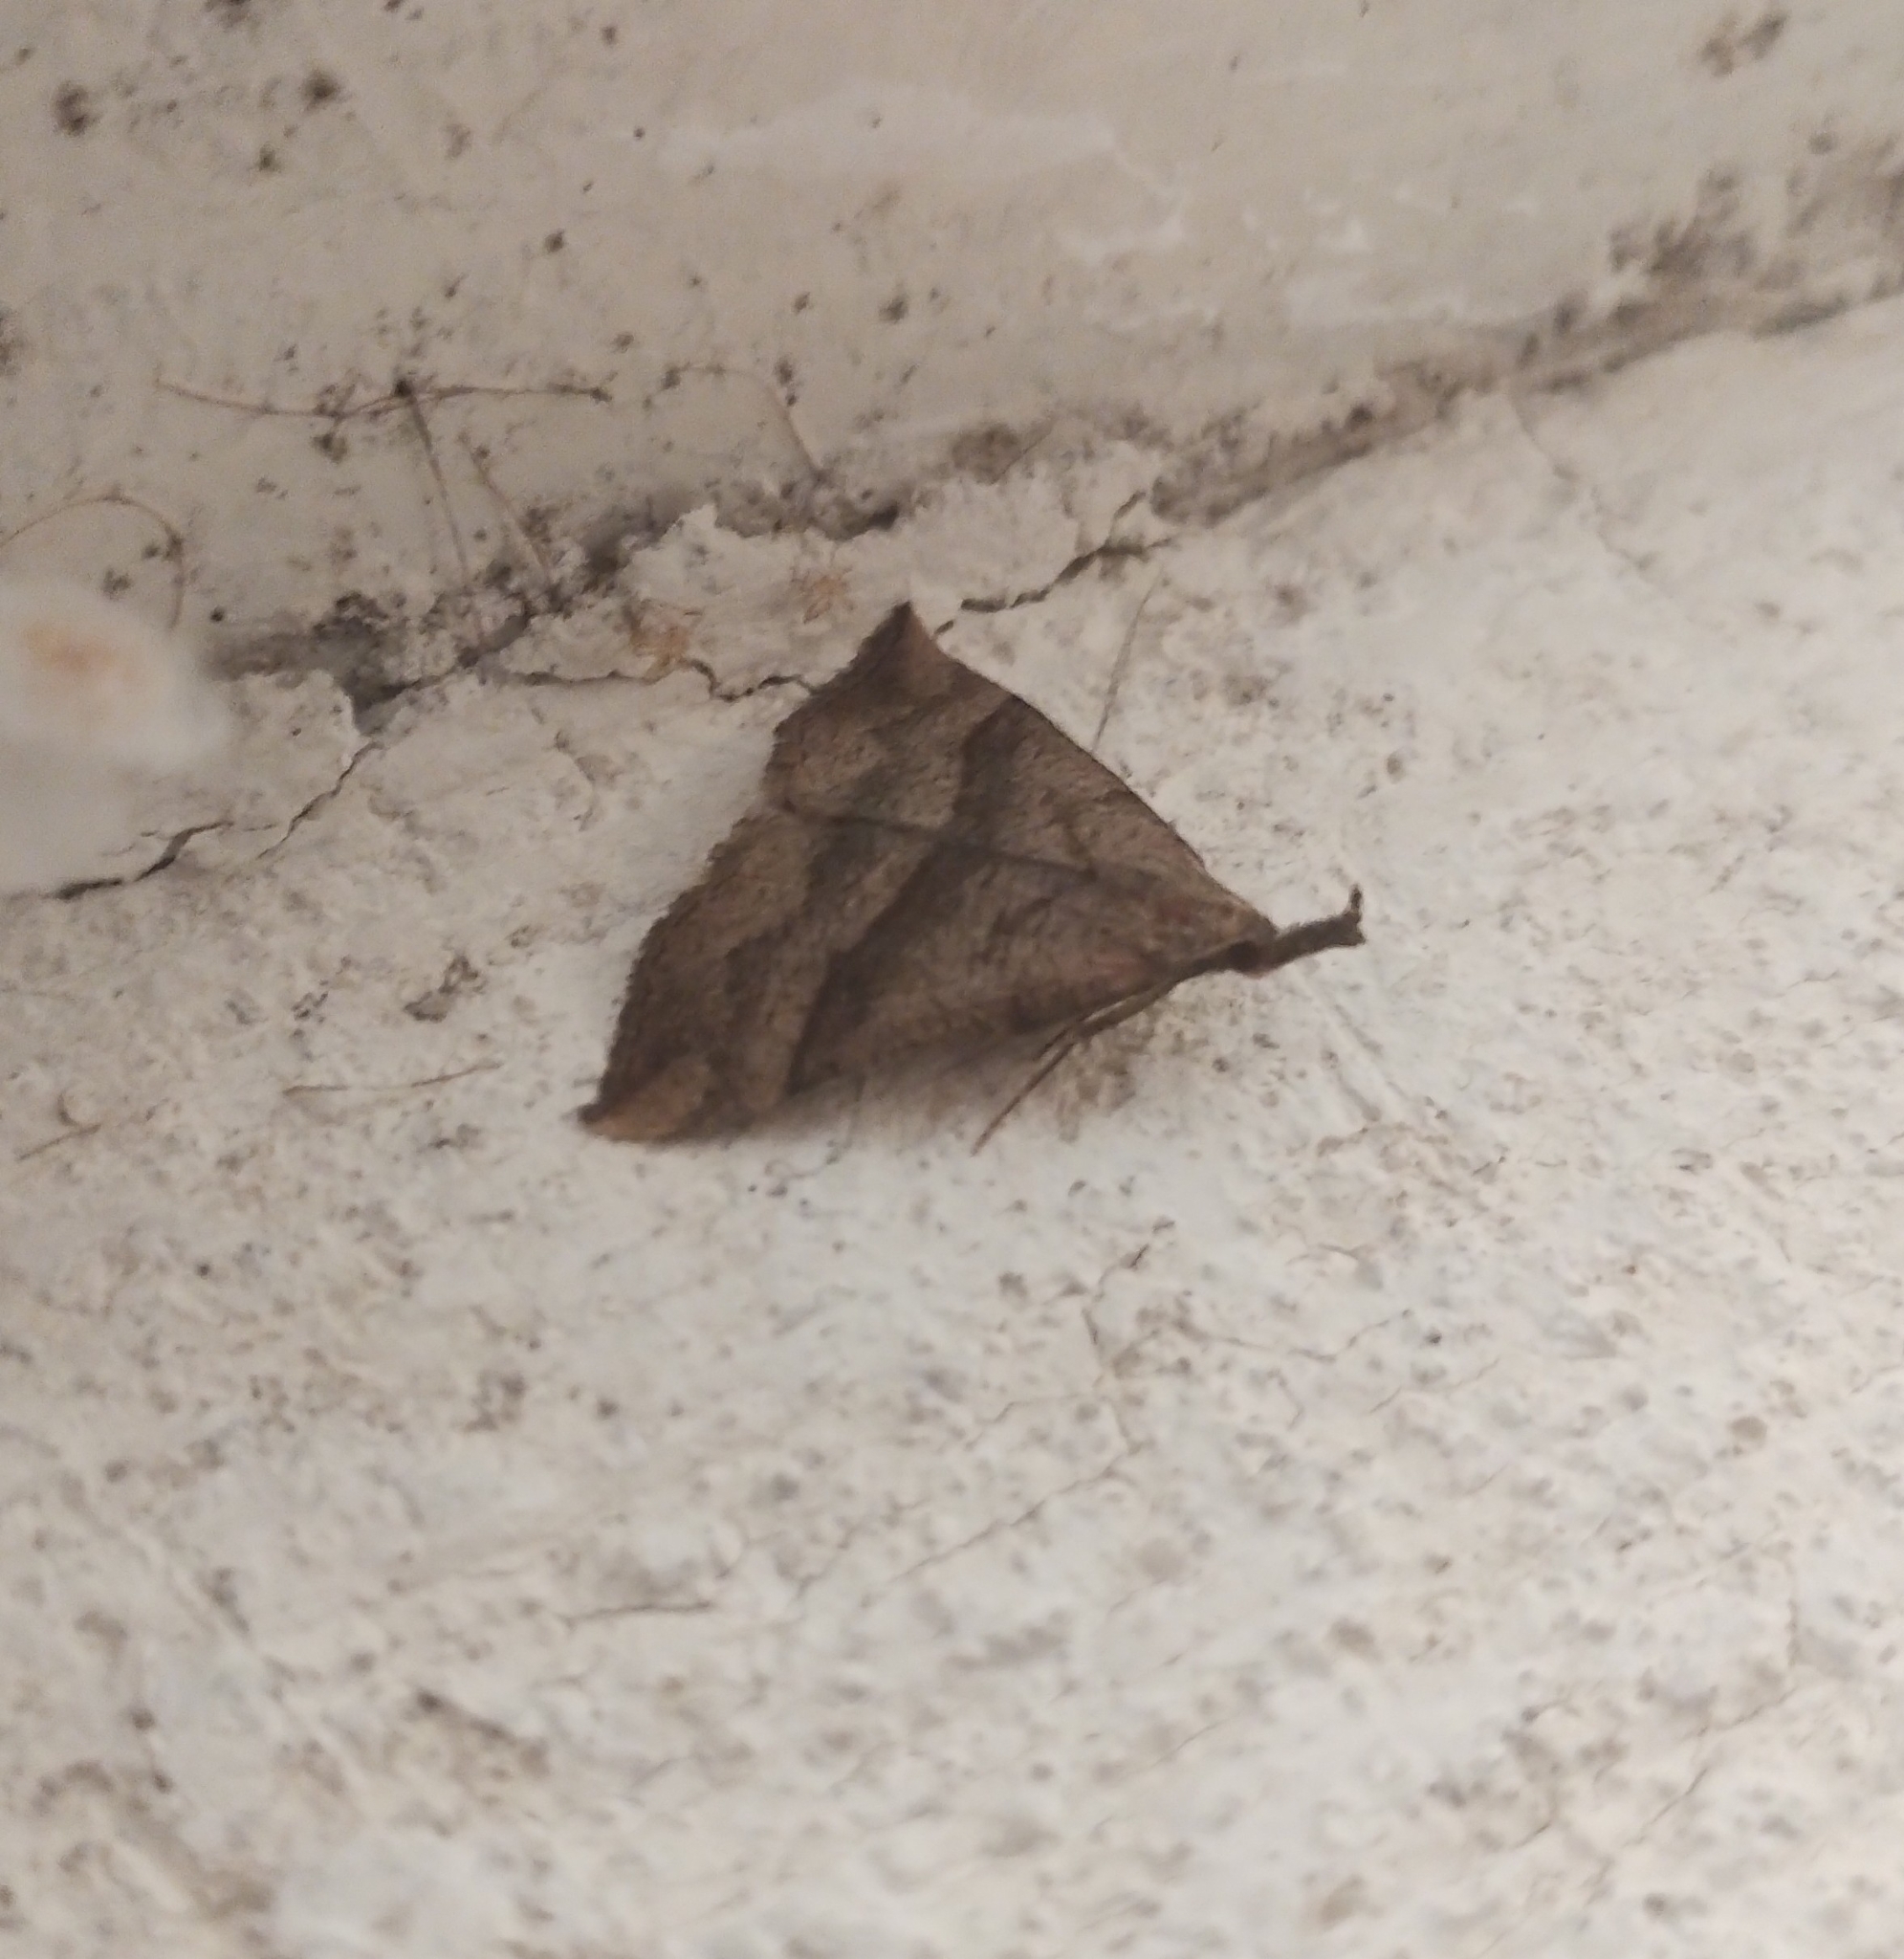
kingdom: Animalia
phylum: Arthropoda
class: Insecta
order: Lepidoptera
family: Erebidae
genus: Hypena
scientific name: Hypena proboscidalis
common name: Snout
